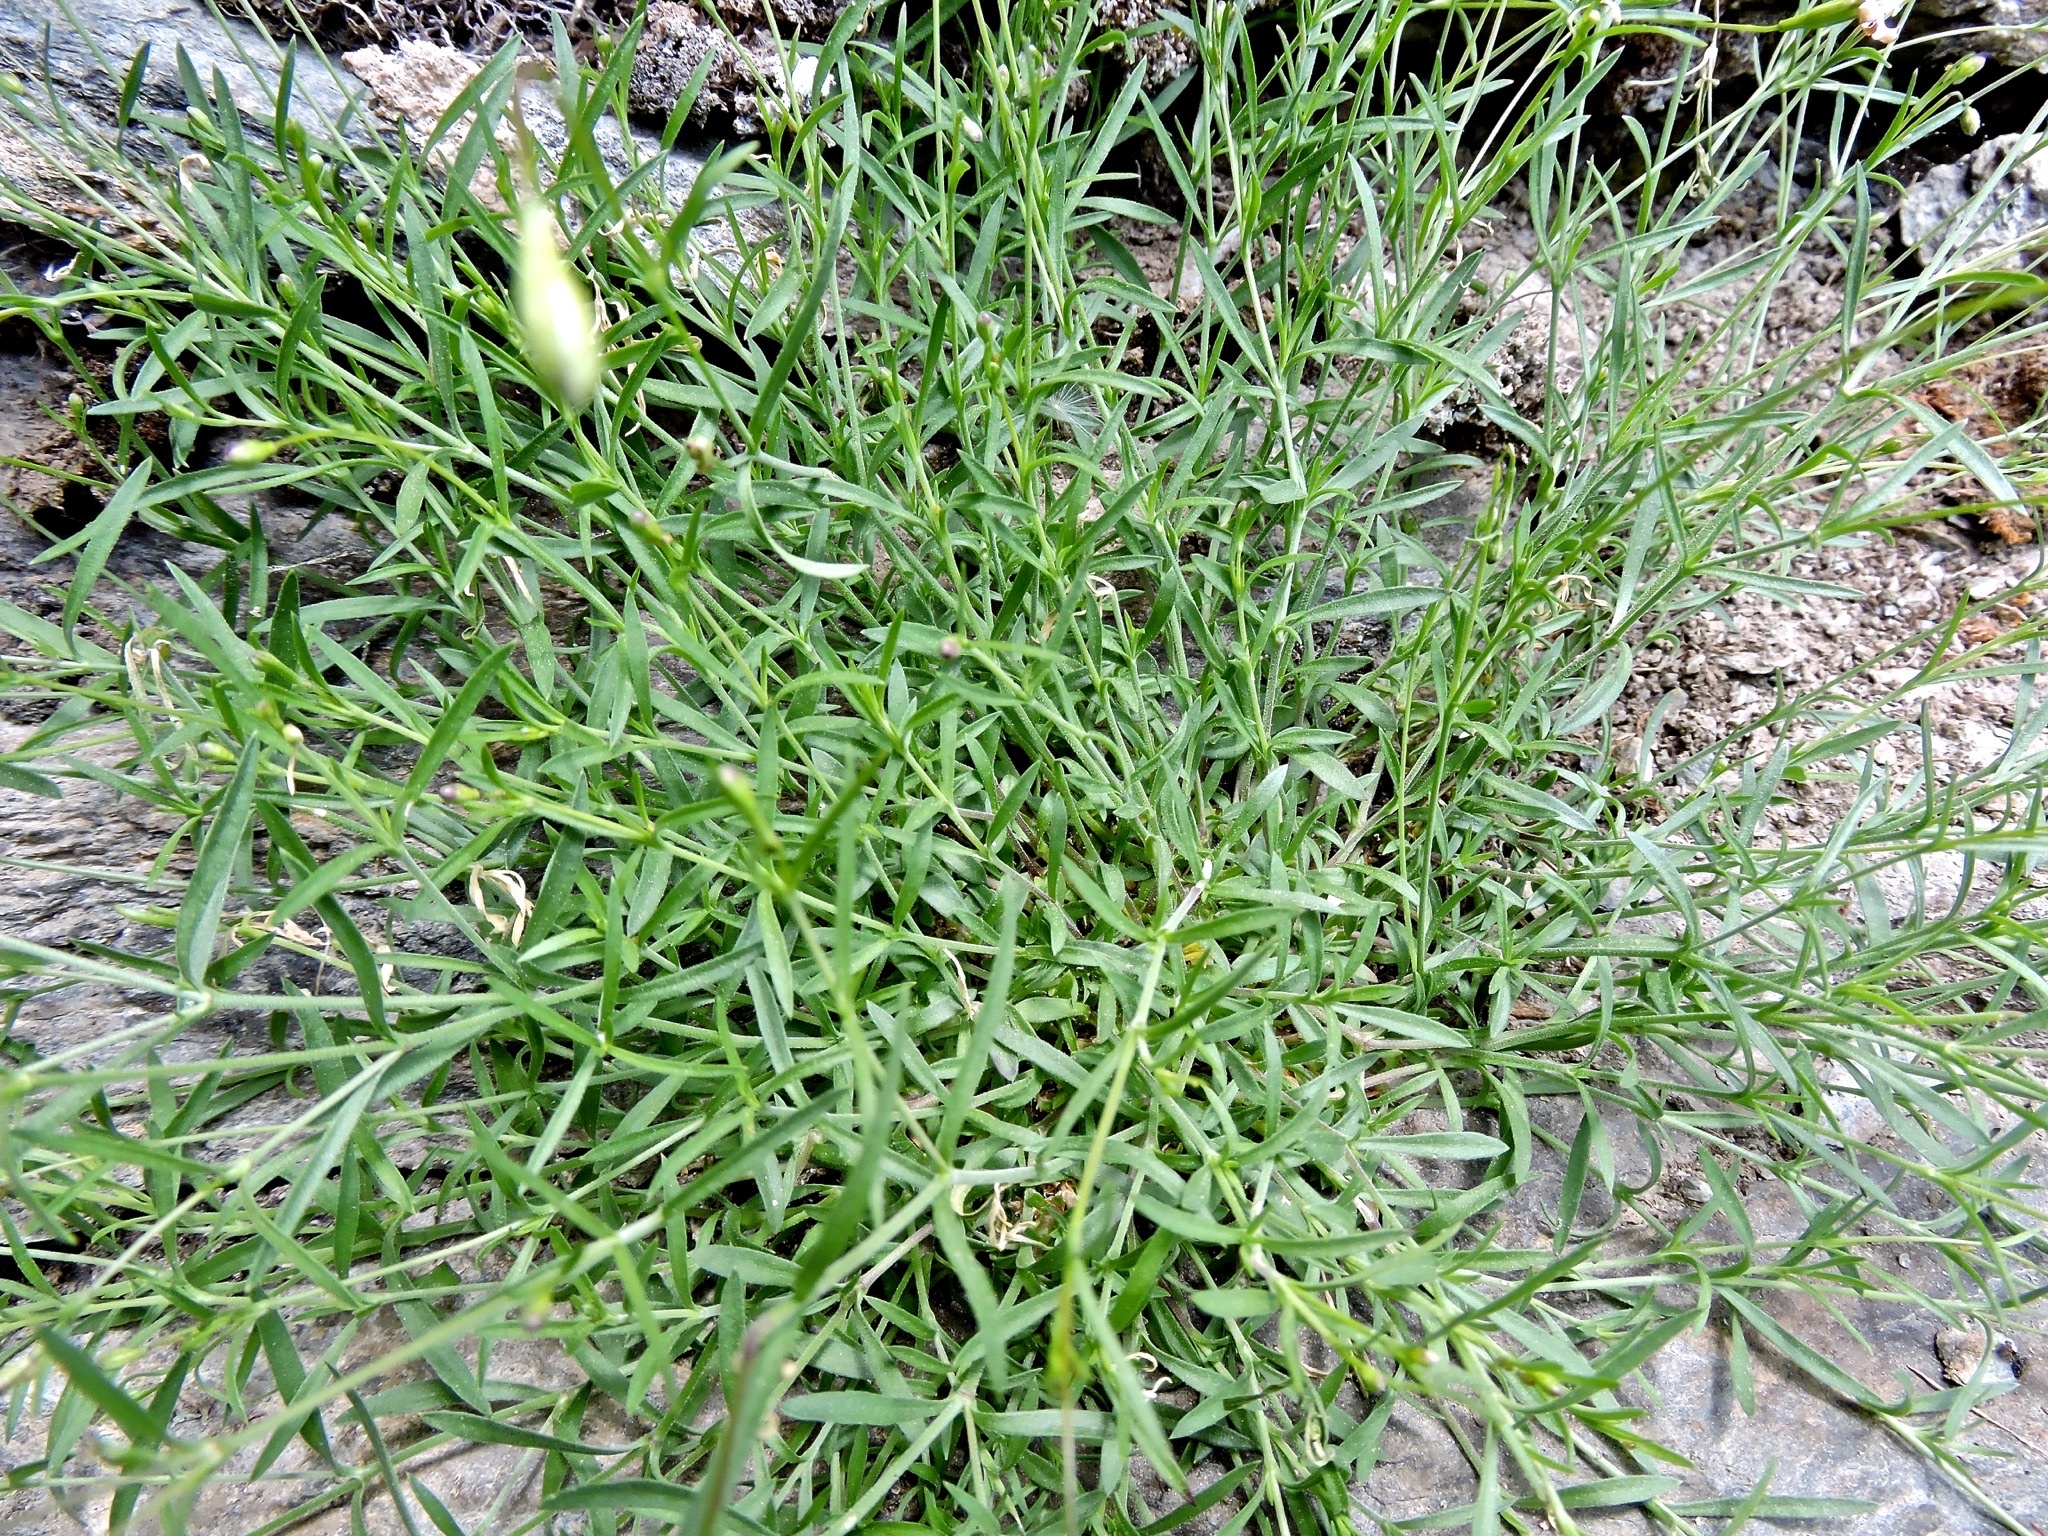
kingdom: Plantae
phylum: Tracheophyta
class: Magnoliopsida
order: Caryophyllales
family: Caryophyllaceae
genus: Silene
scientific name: Silene saxifraga
